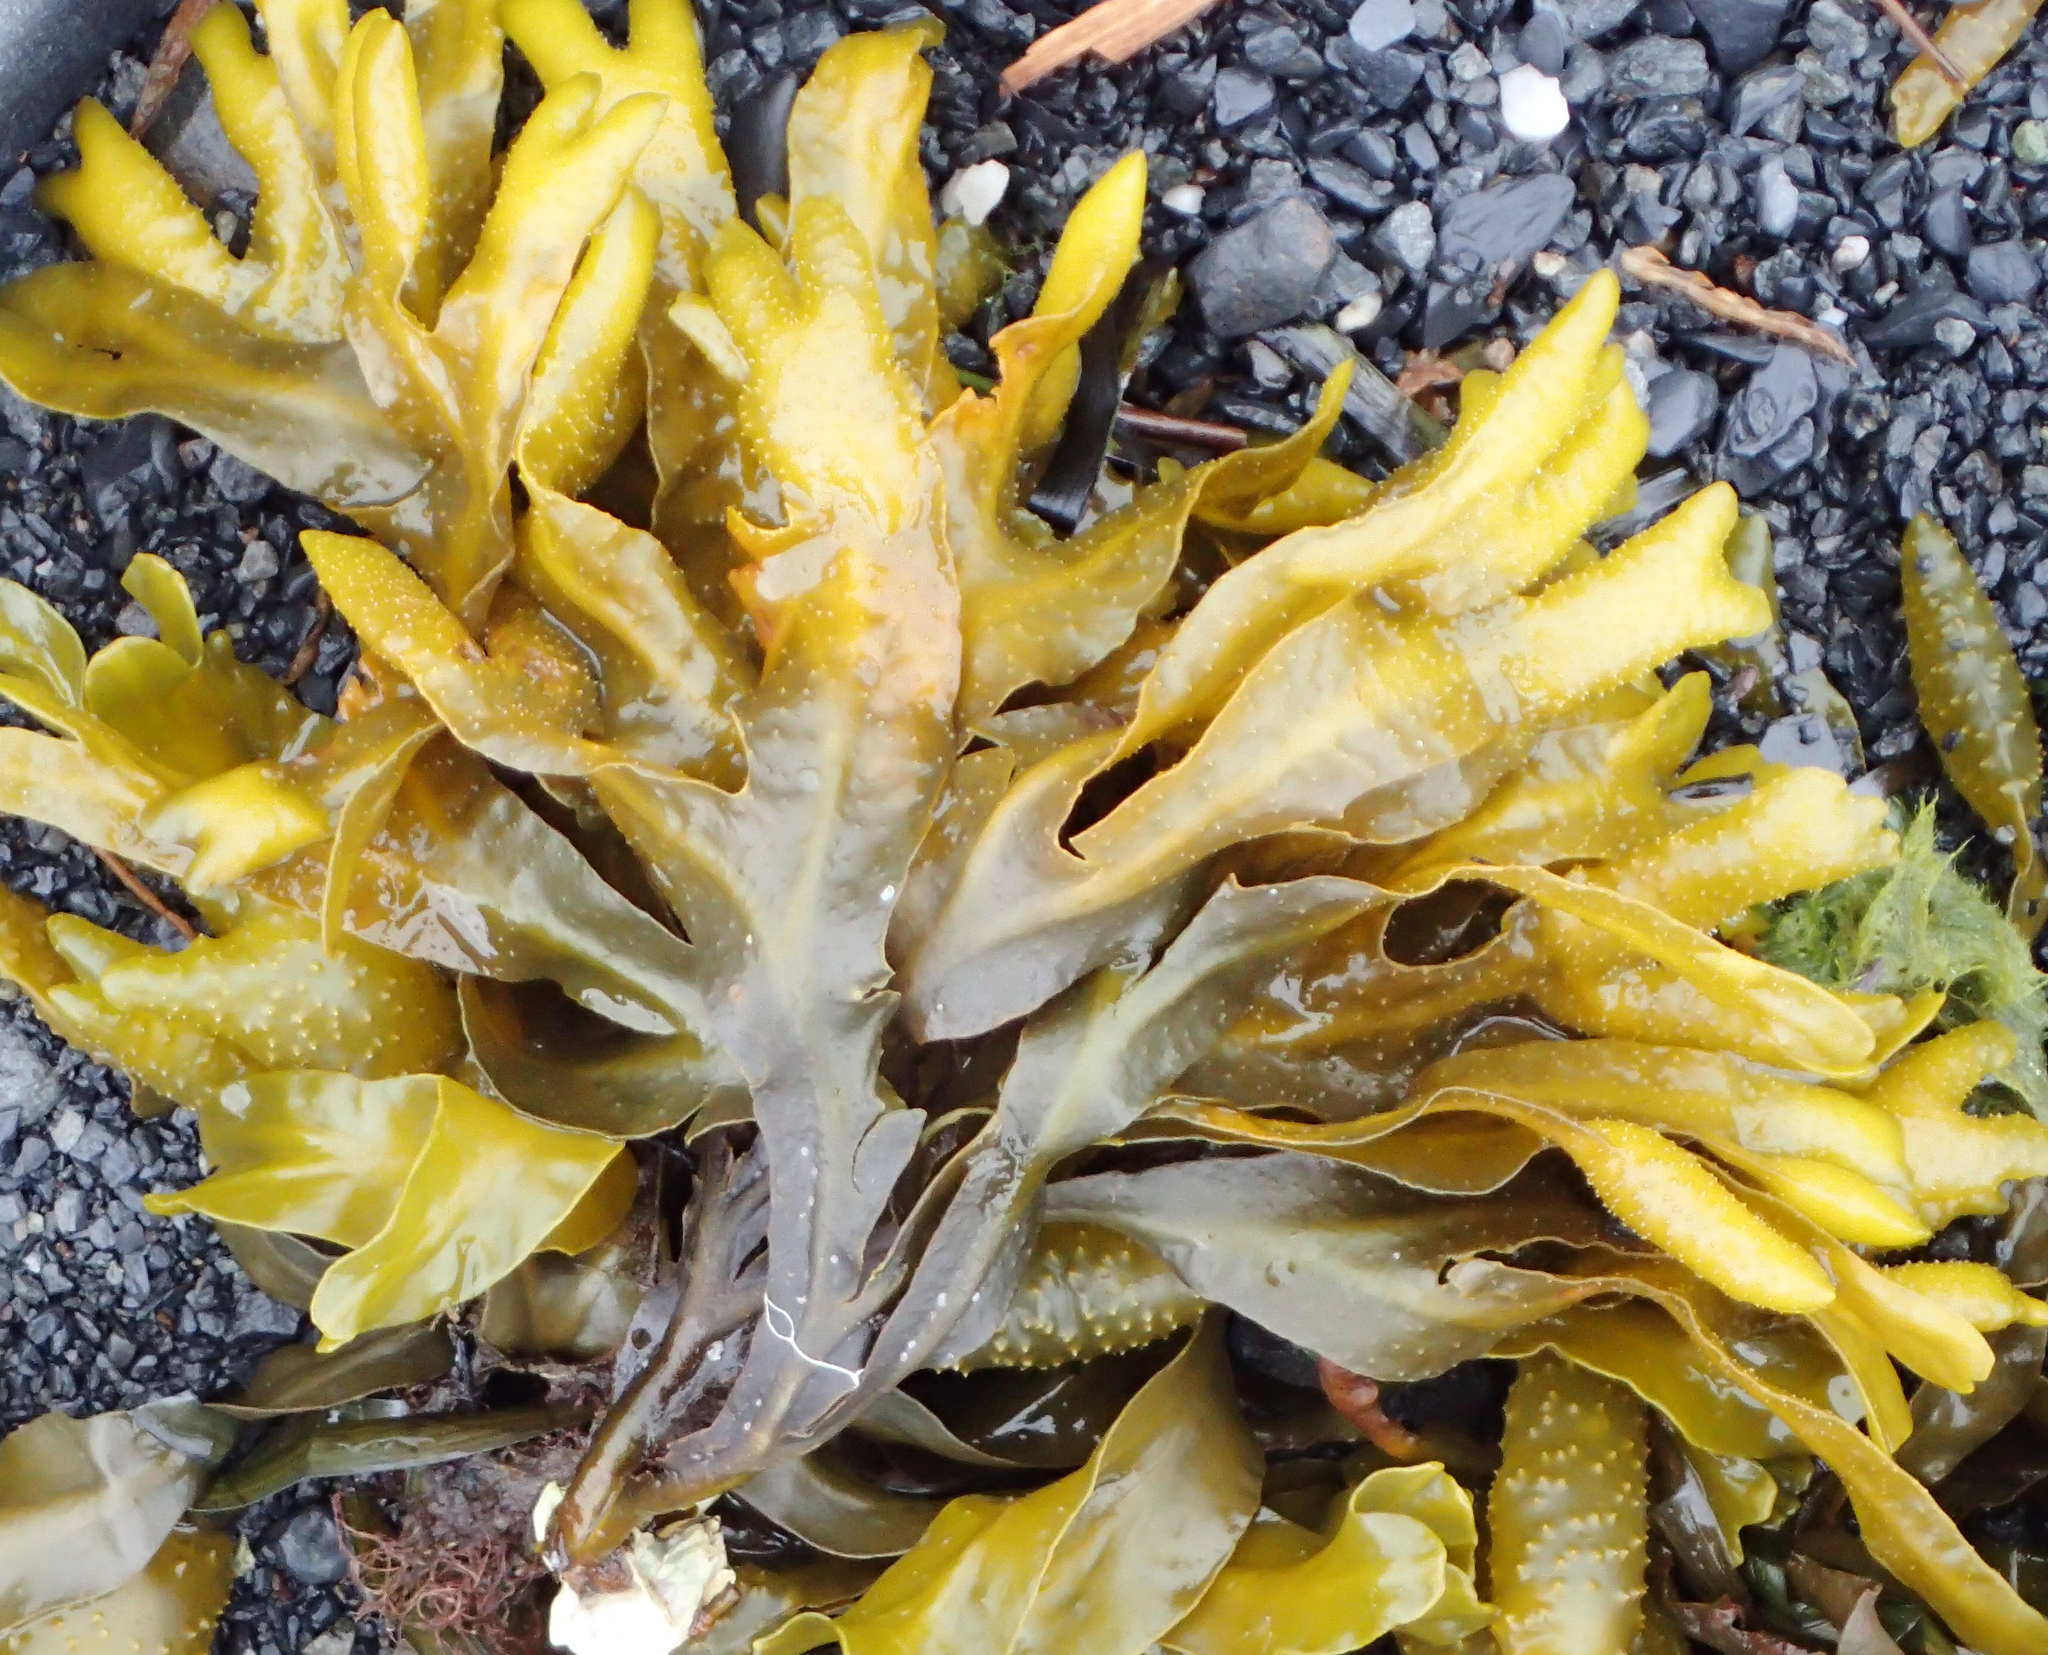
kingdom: Chromista
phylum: Ochrophyta
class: Phaeophyceae
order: Fucales
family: Fucaceae
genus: Fucus
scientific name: Fucus distichus
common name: Rockweed
